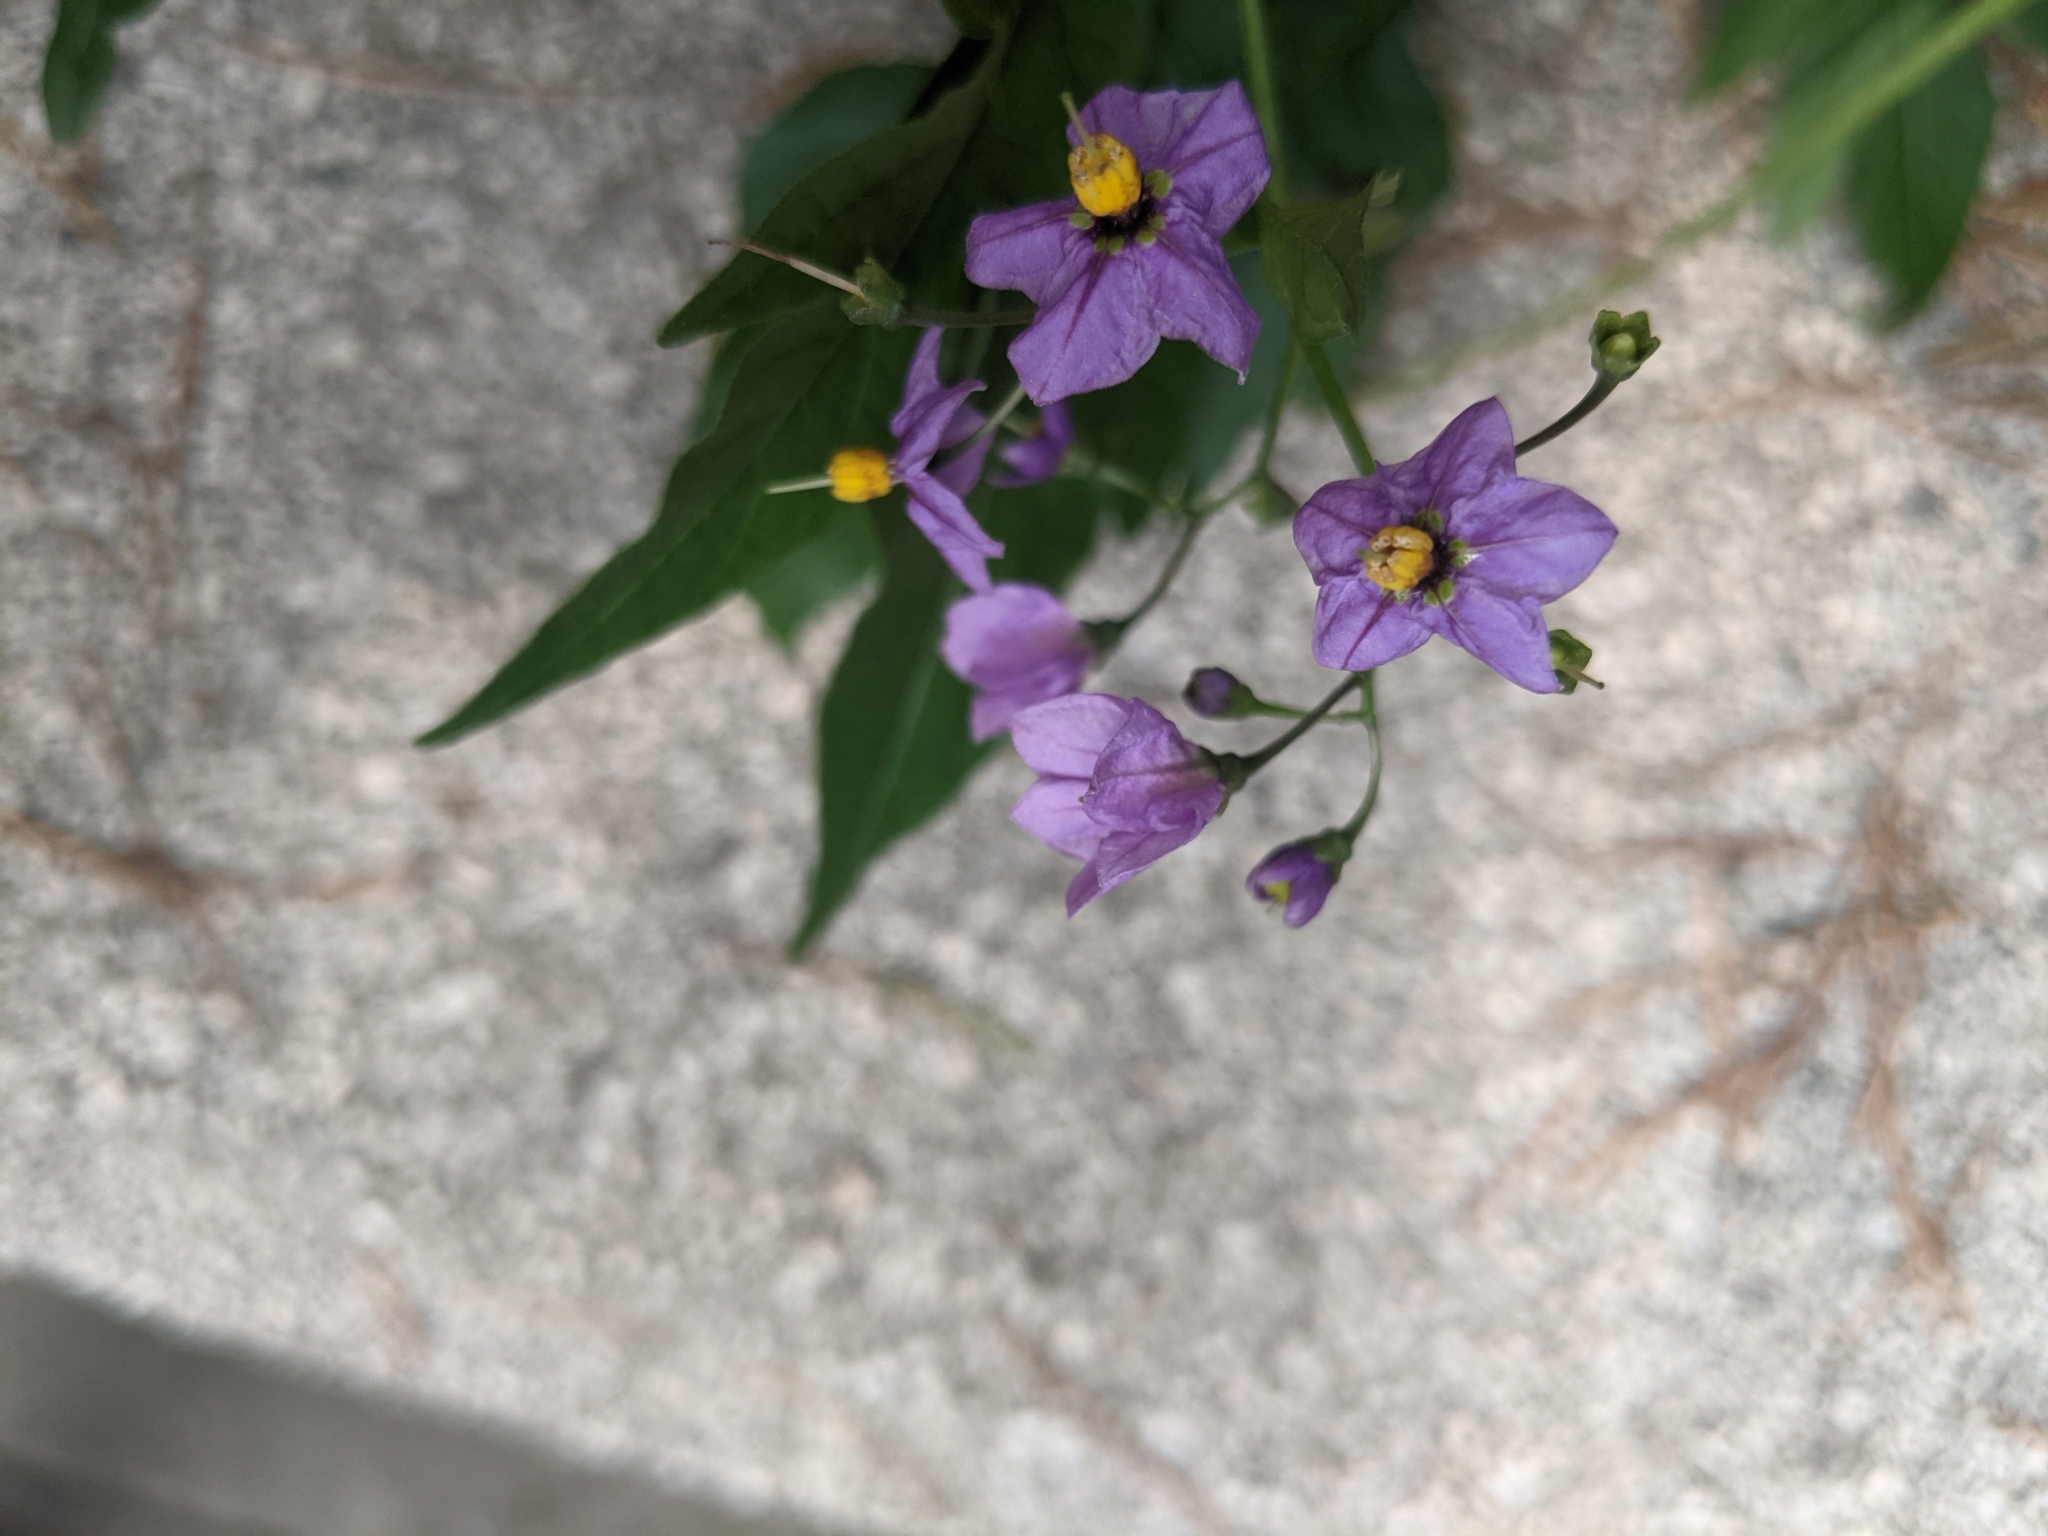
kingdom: Plantae
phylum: Tracheophyta
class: Magnoliopsida
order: Solanales
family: Solanaceae
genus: Solanum
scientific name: Solanum septemlobum
